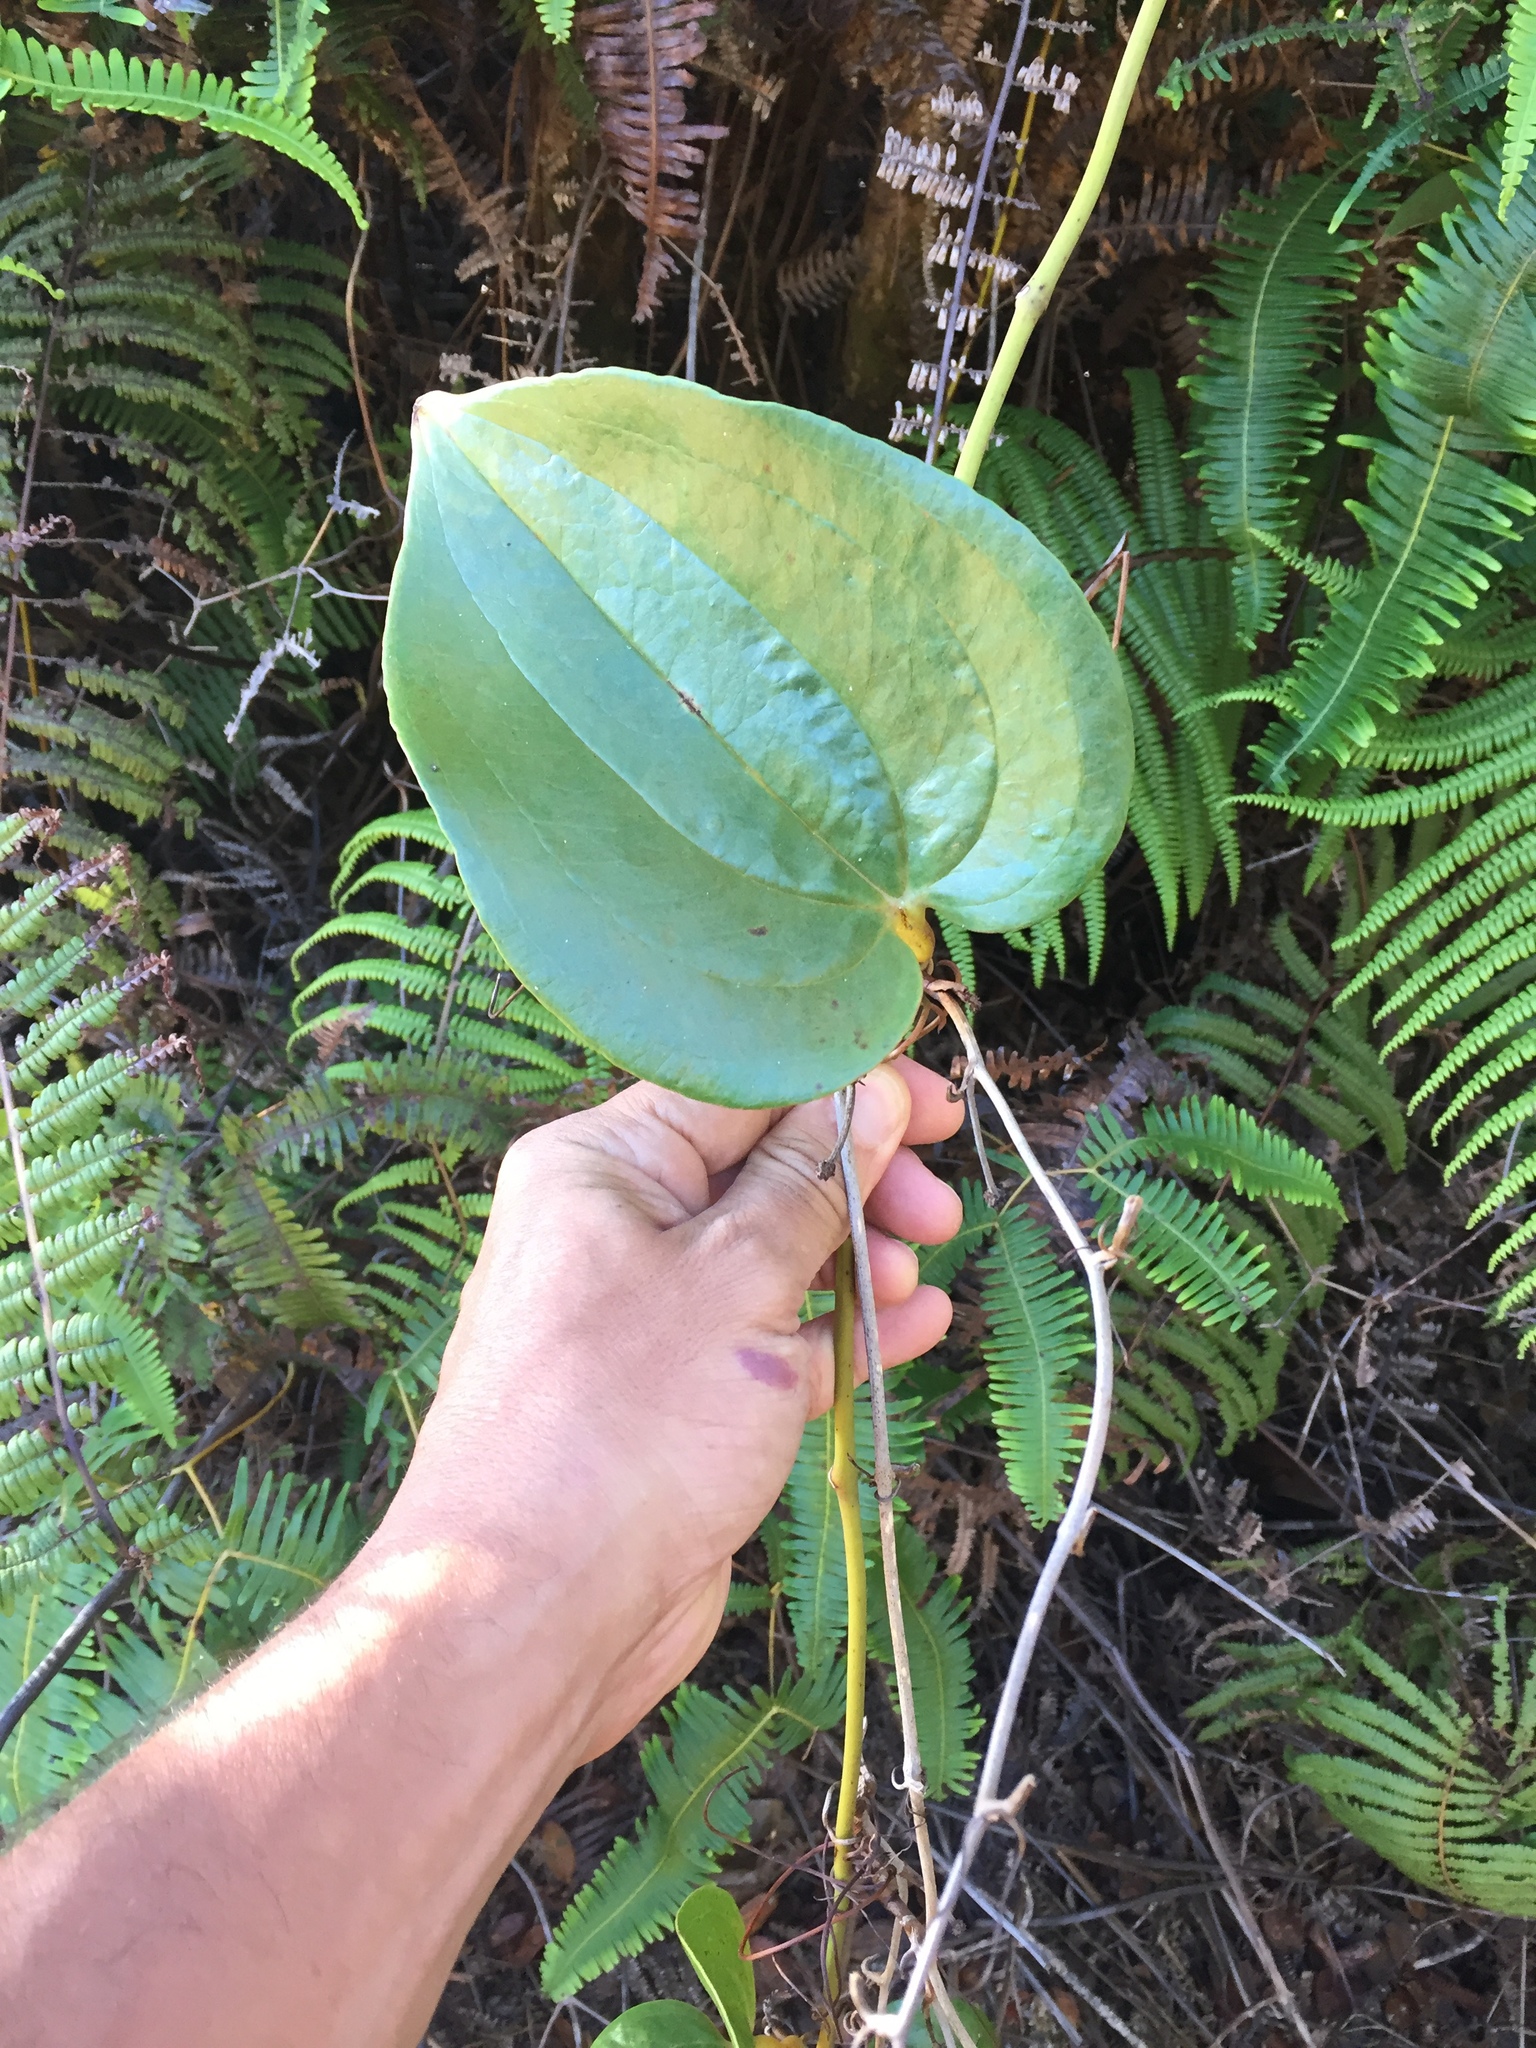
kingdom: Plantae
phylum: Tracheophyta
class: Liliopsida
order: Liliales
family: Smilacaceae
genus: Smilax
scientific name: Smilax melastomifolia
